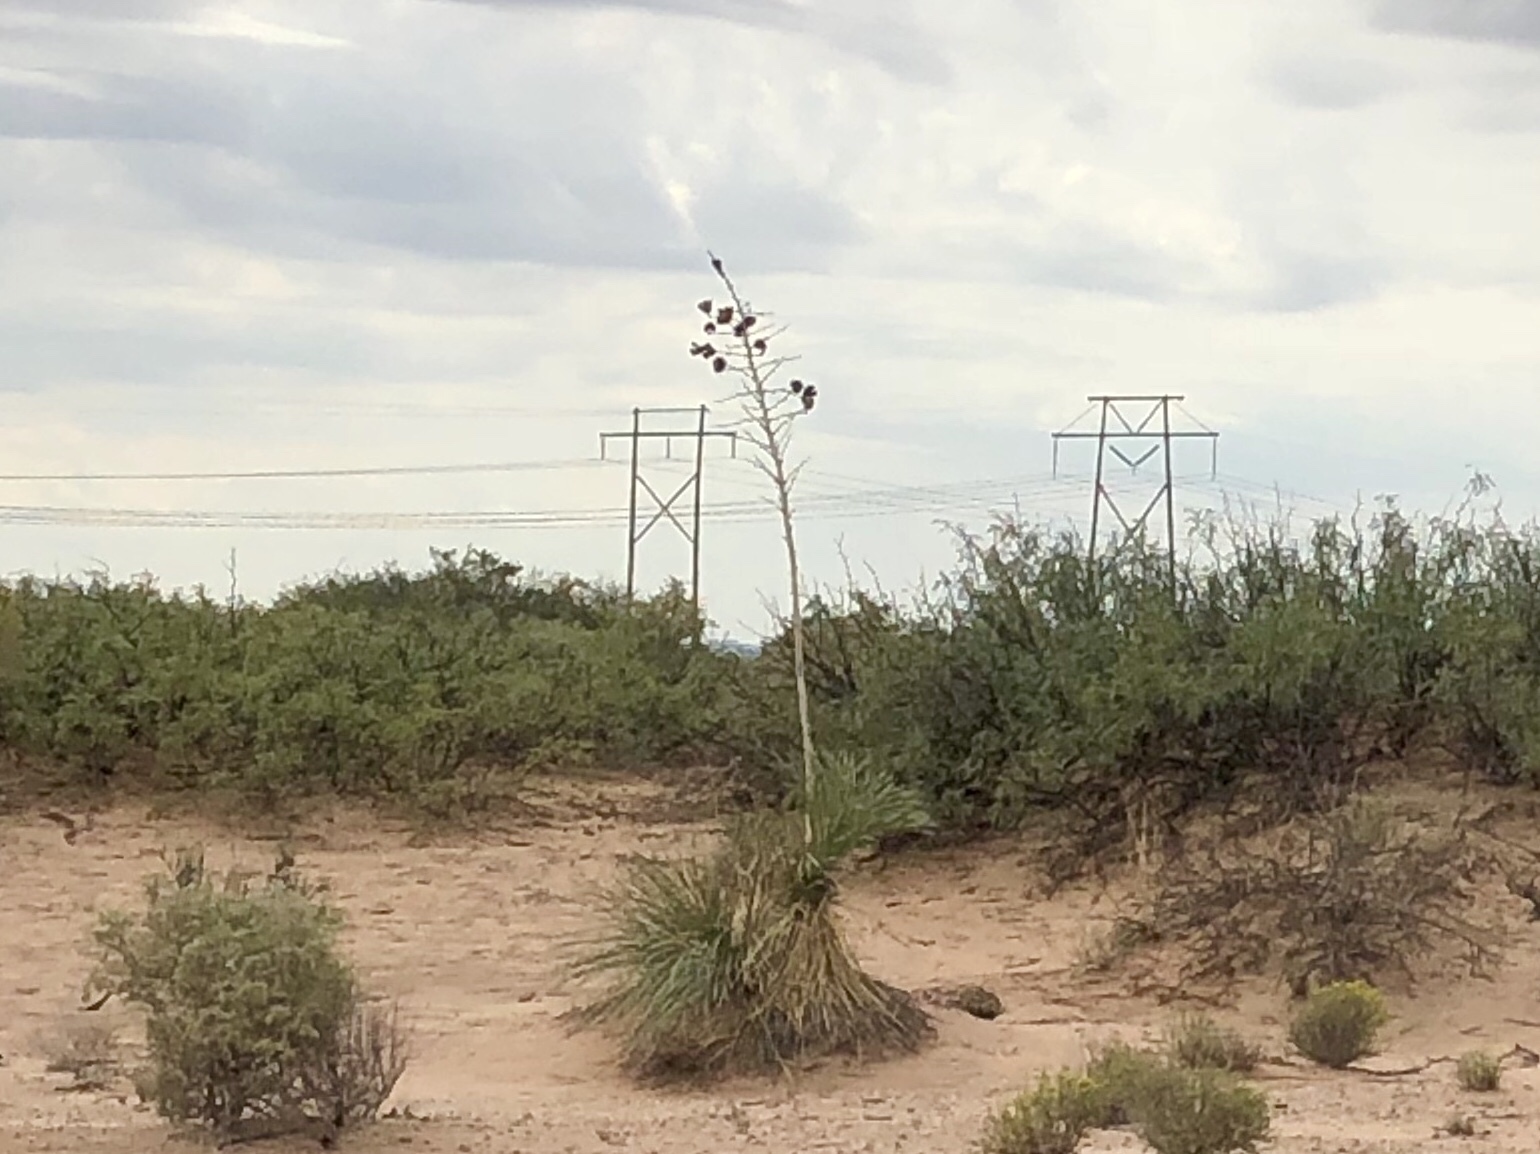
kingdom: Plantae
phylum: Tracheophyta
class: Liliopsida
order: Asparagales
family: Asparagaceae
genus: Yucca
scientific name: Yucca elata
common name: Palmella
